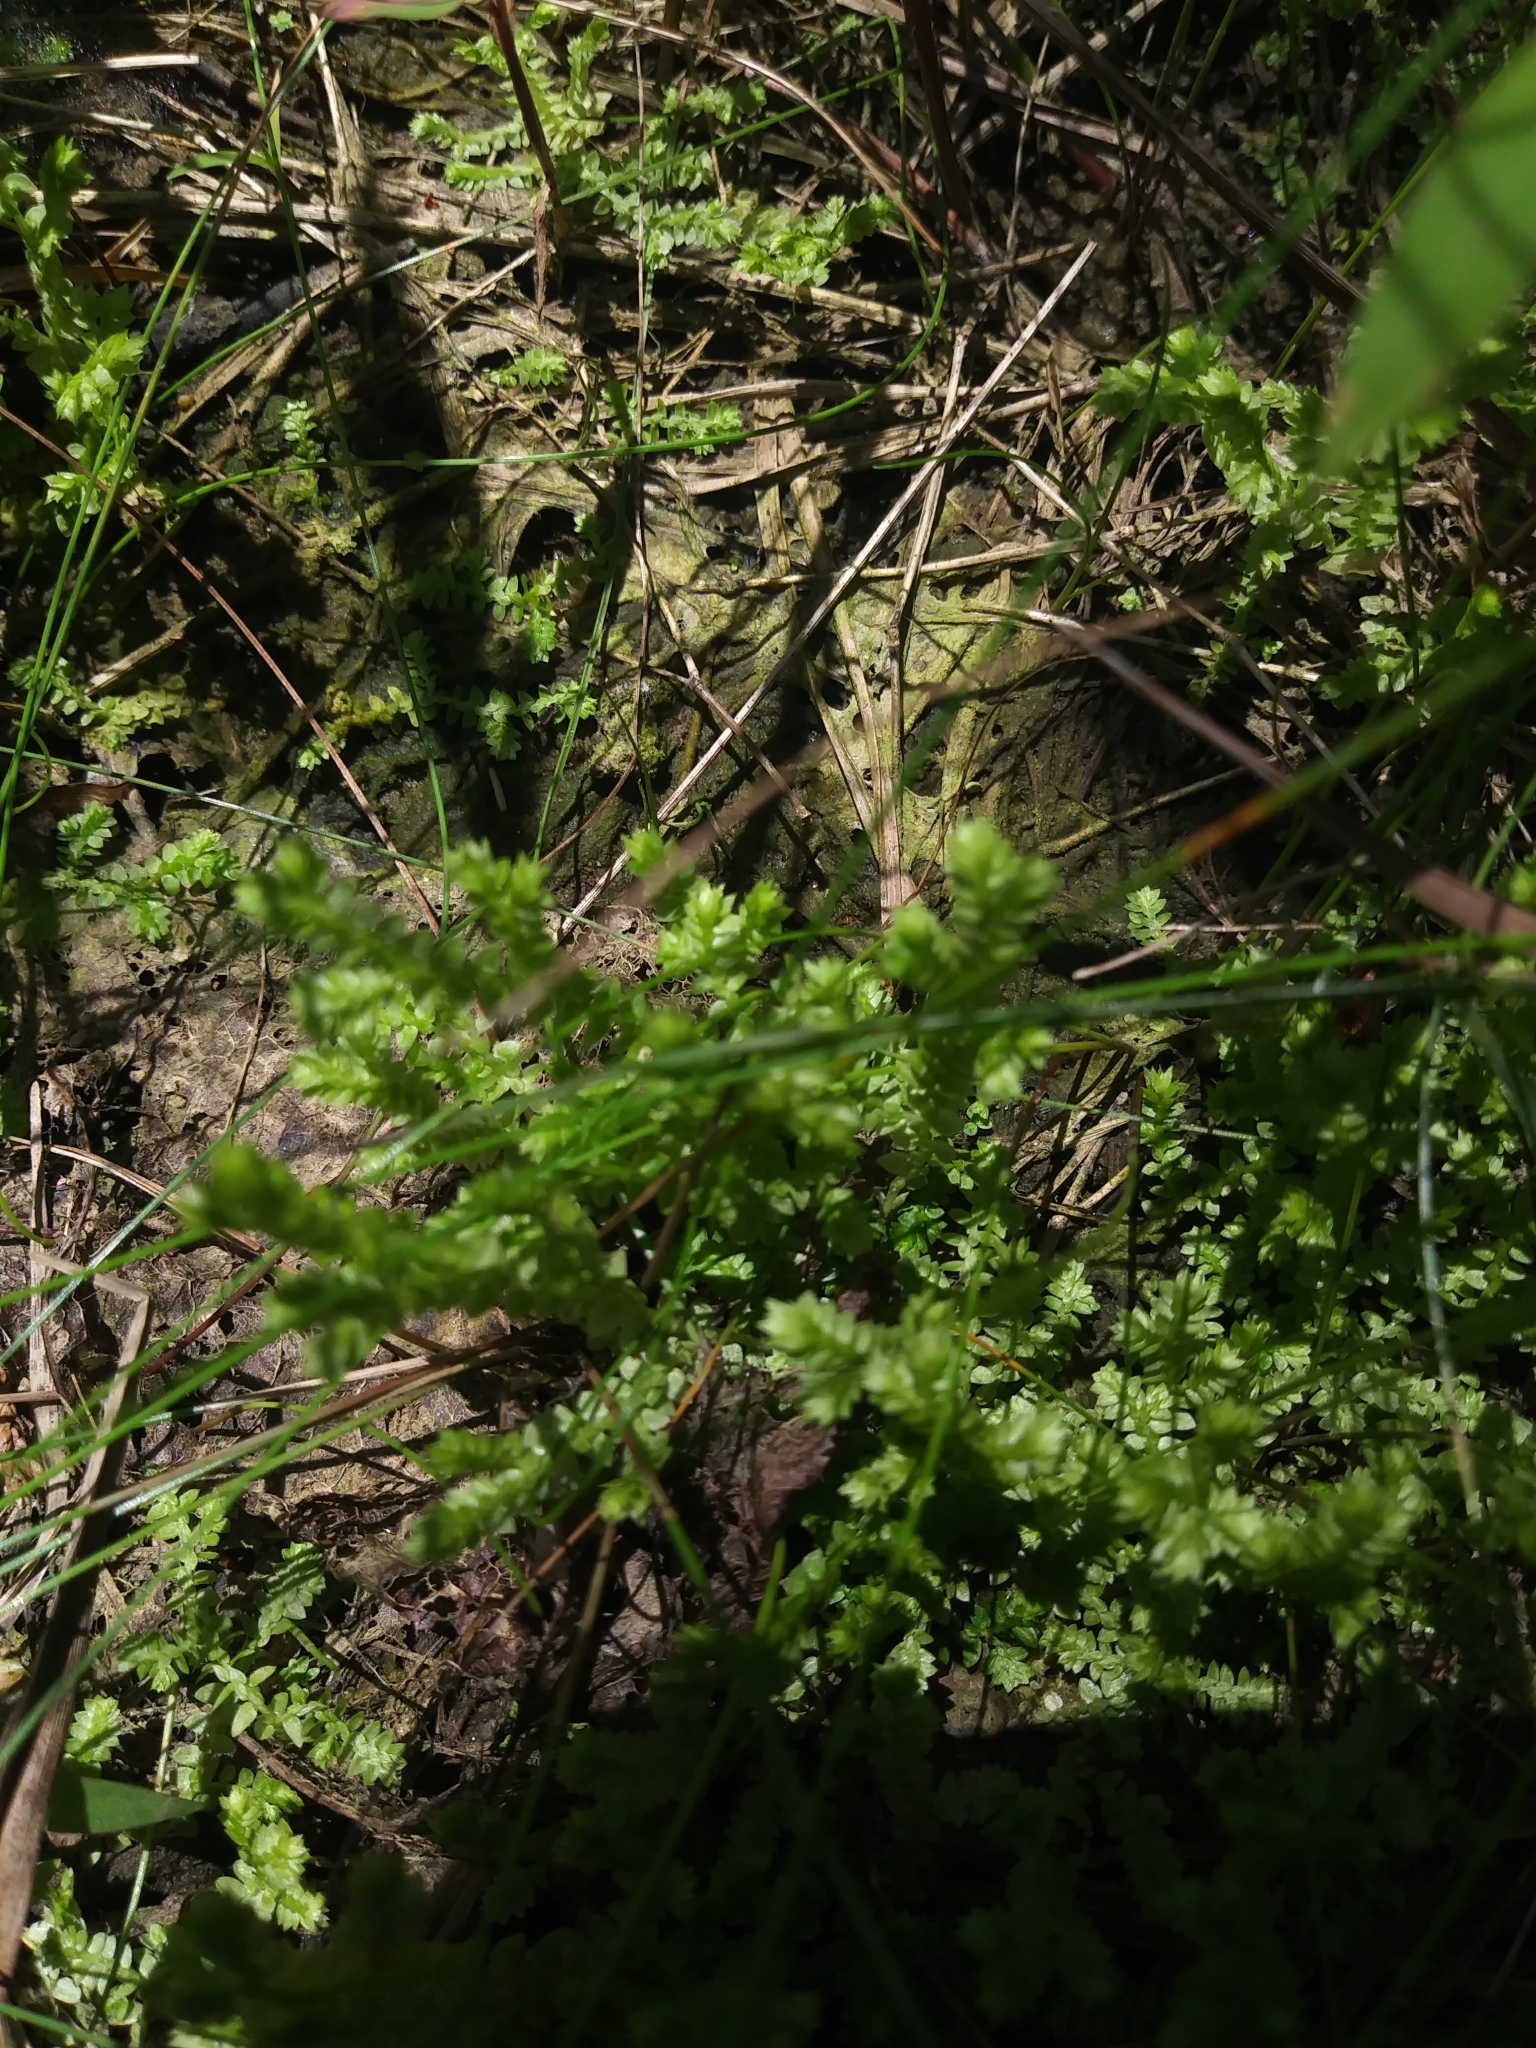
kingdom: Plantae
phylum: Tracheophyta
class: Lycopodiopsida
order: Selaginellales
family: Selaginellaceae
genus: Selaginella
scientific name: Selaginella apoda
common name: Creeping spikemoss
